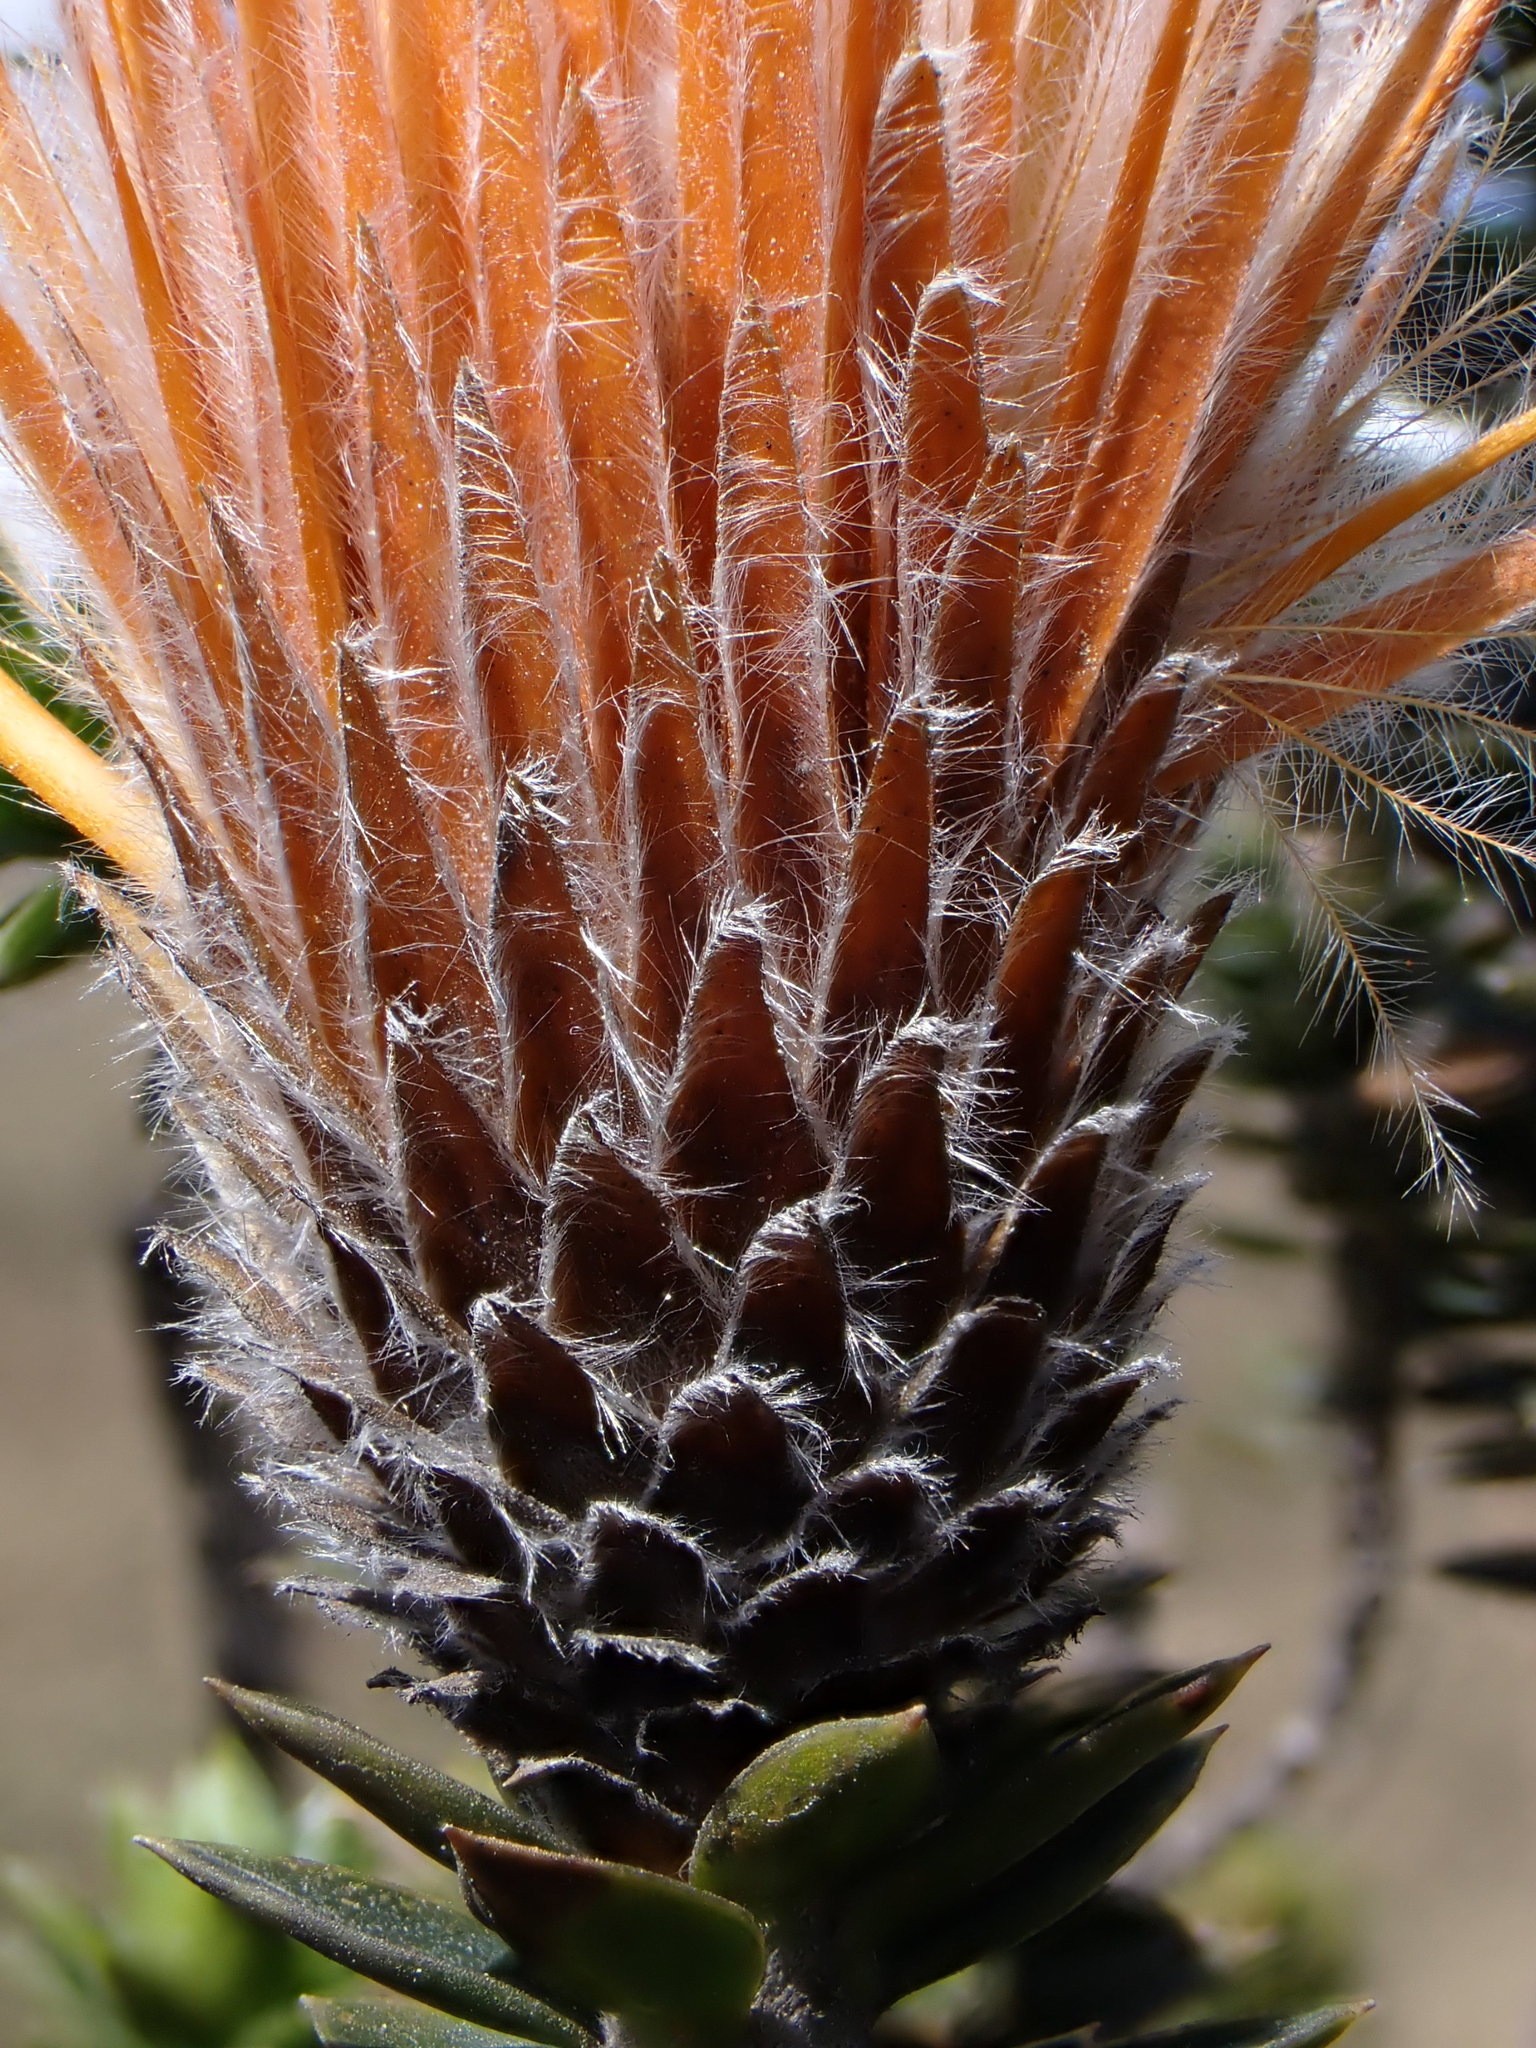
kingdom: Plantae
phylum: Tracheophyta
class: Magnoliopsida
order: Asterales
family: Asteraceae
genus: Chuquiraga
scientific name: Chuquiraga jussieui
